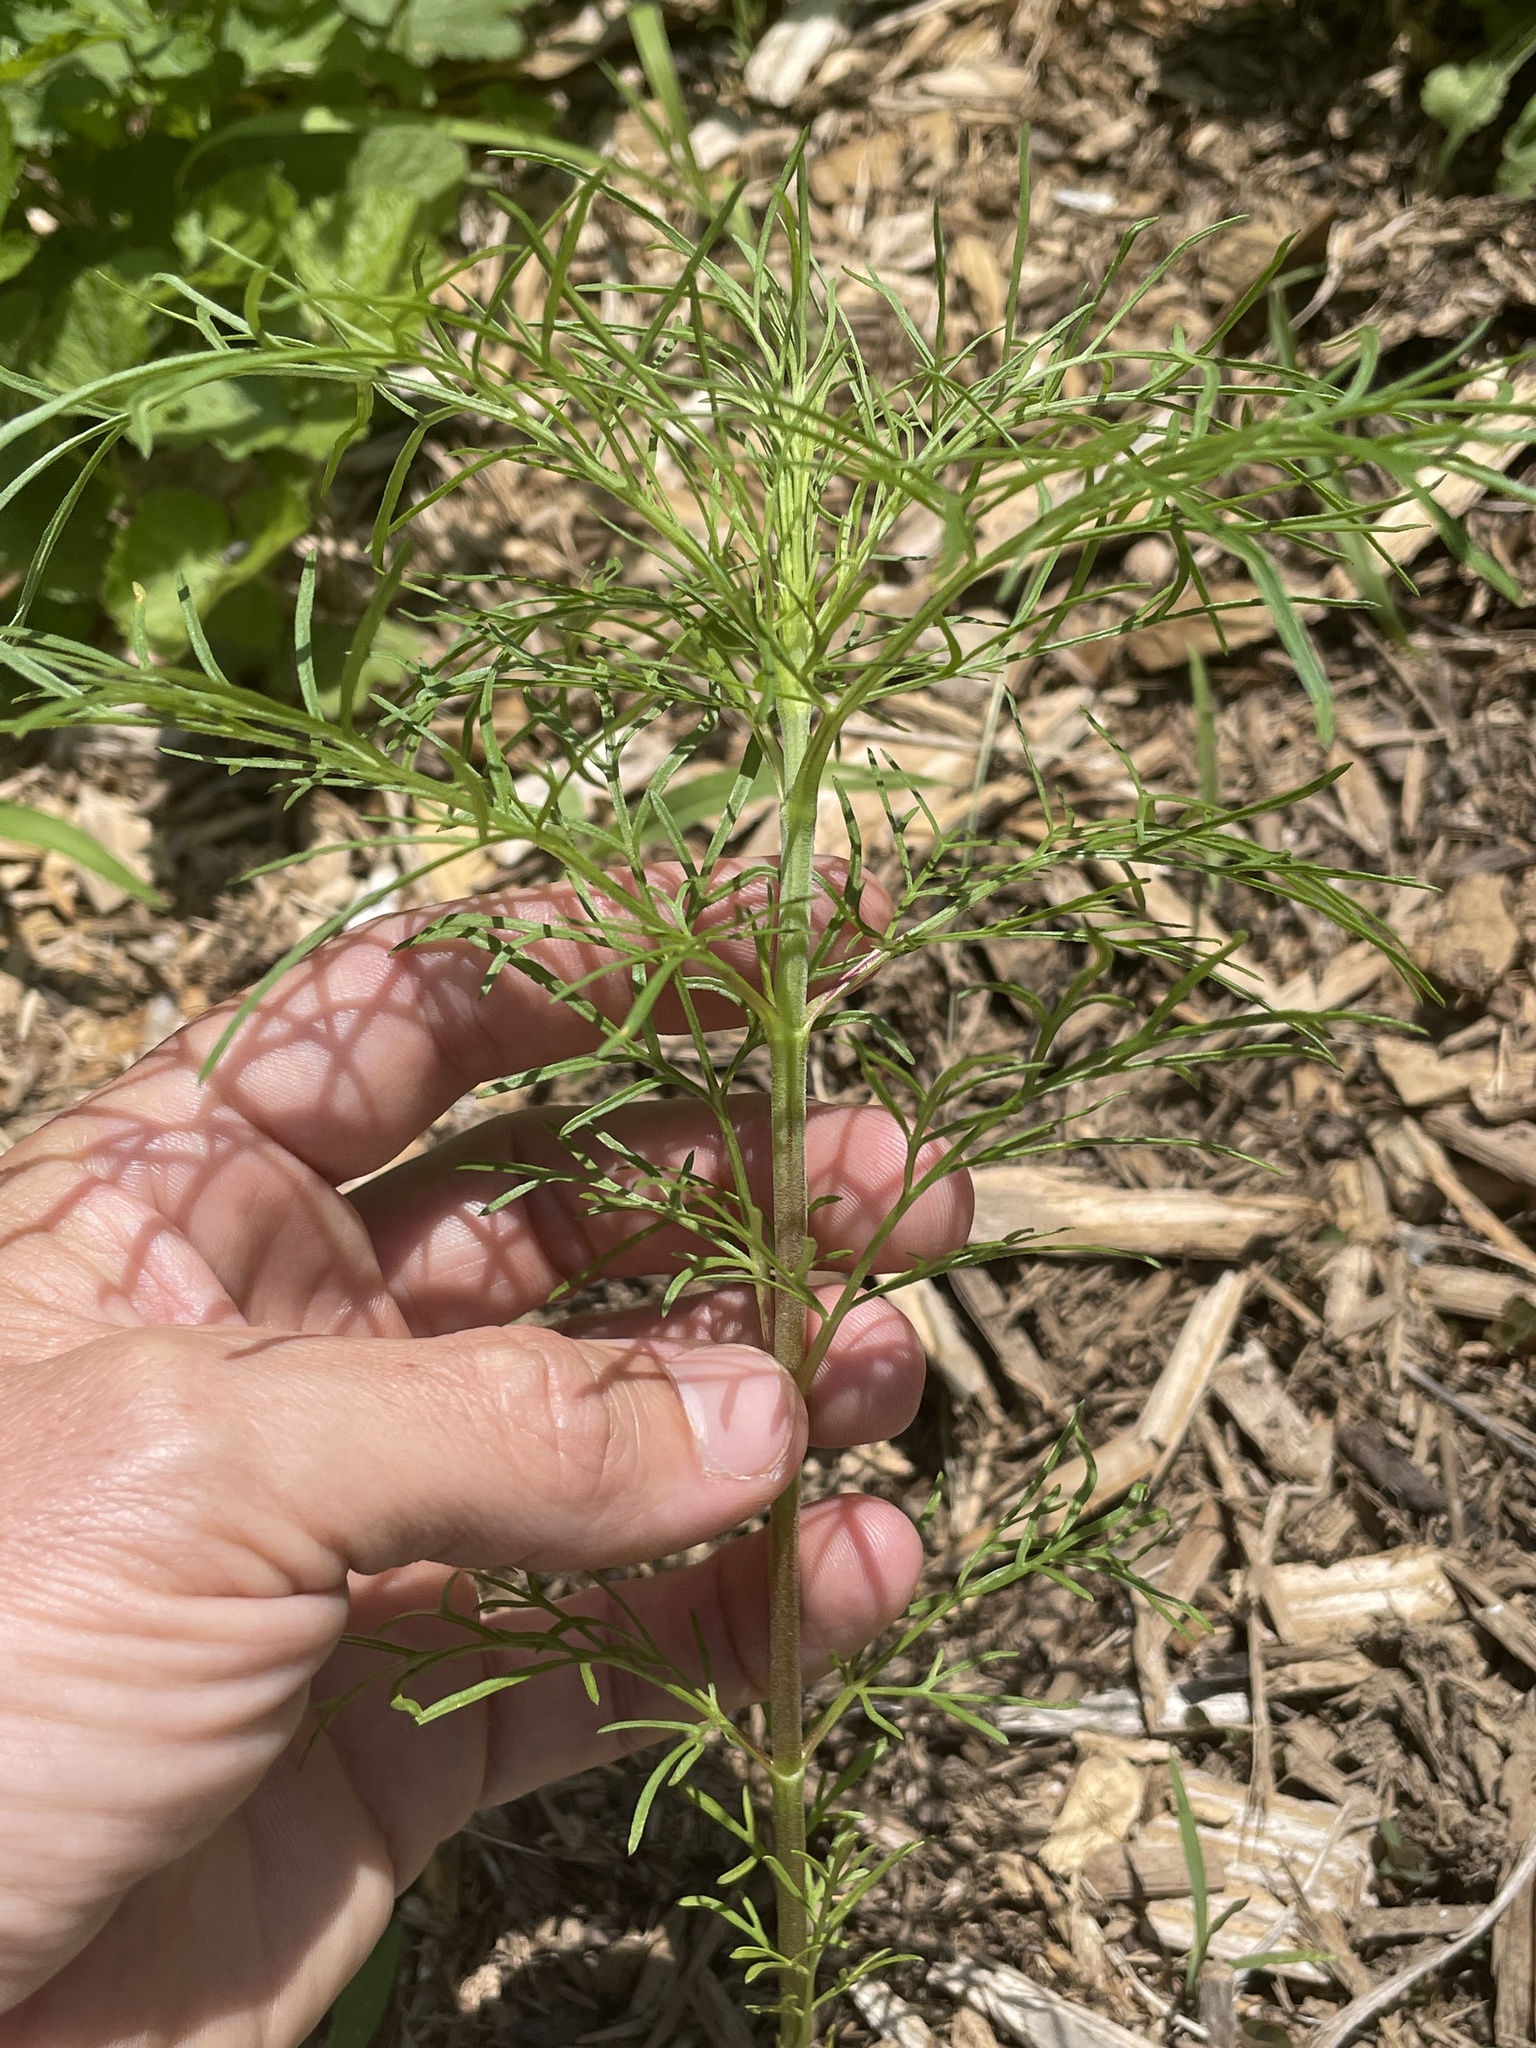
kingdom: Plantae
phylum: Tracheophyta
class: Magnoliopsida
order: Asterales
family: Asteraceae
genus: Eupatorium
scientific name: Eupatorium capillifolium
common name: Dog-fennel
